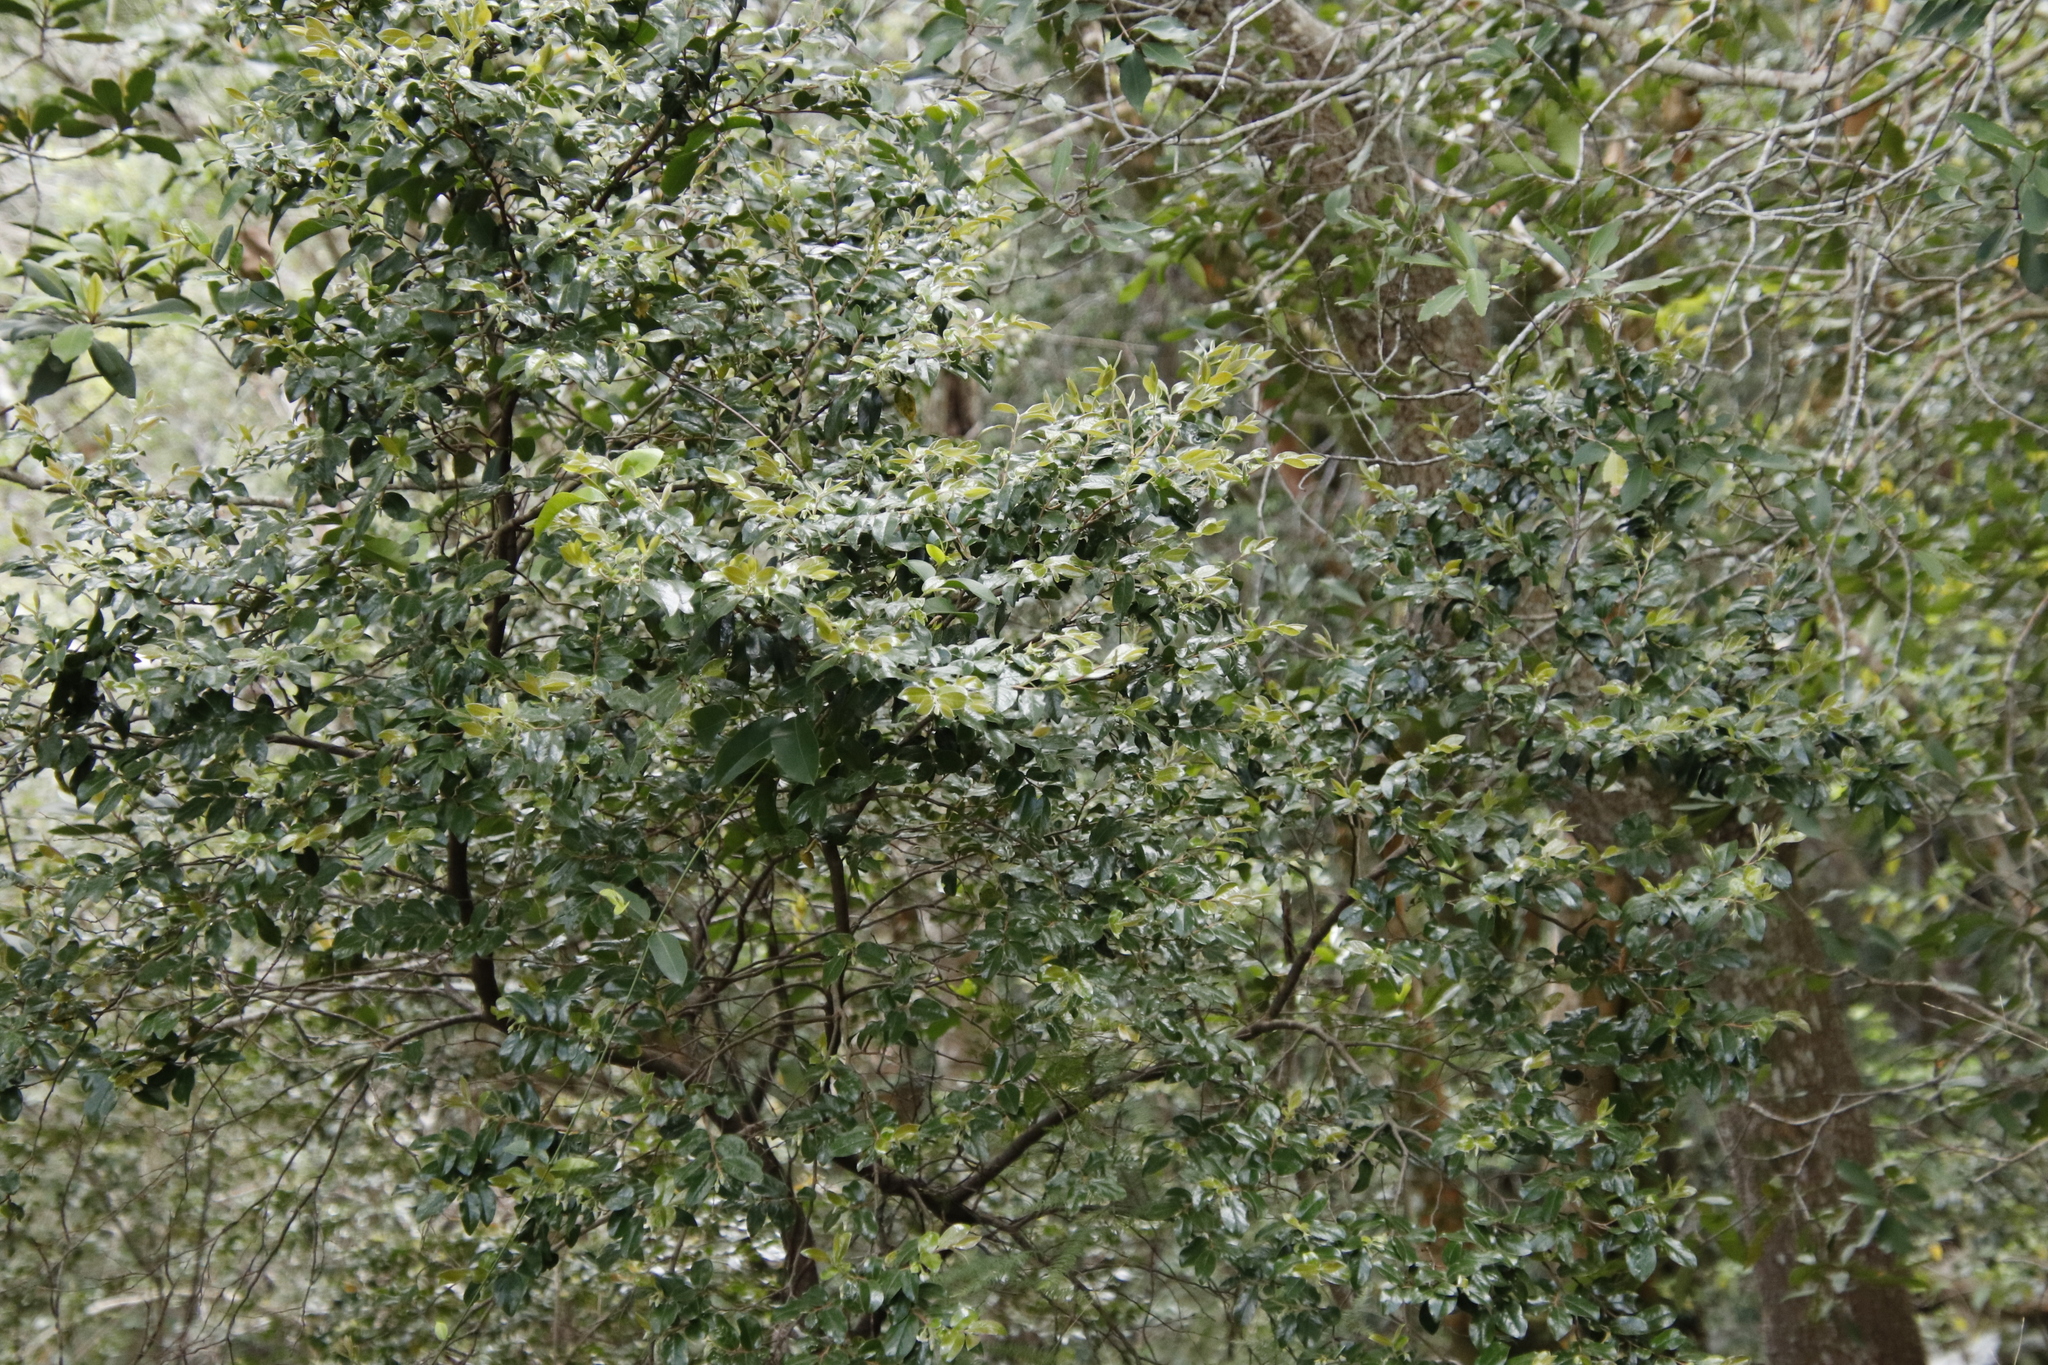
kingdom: Plantae
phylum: Tracheophyta
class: Magnoliopsida
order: Ericales
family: Ebenaceae
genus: Diospyros
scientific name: Diospyros whyteana
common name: Bladder-nut
